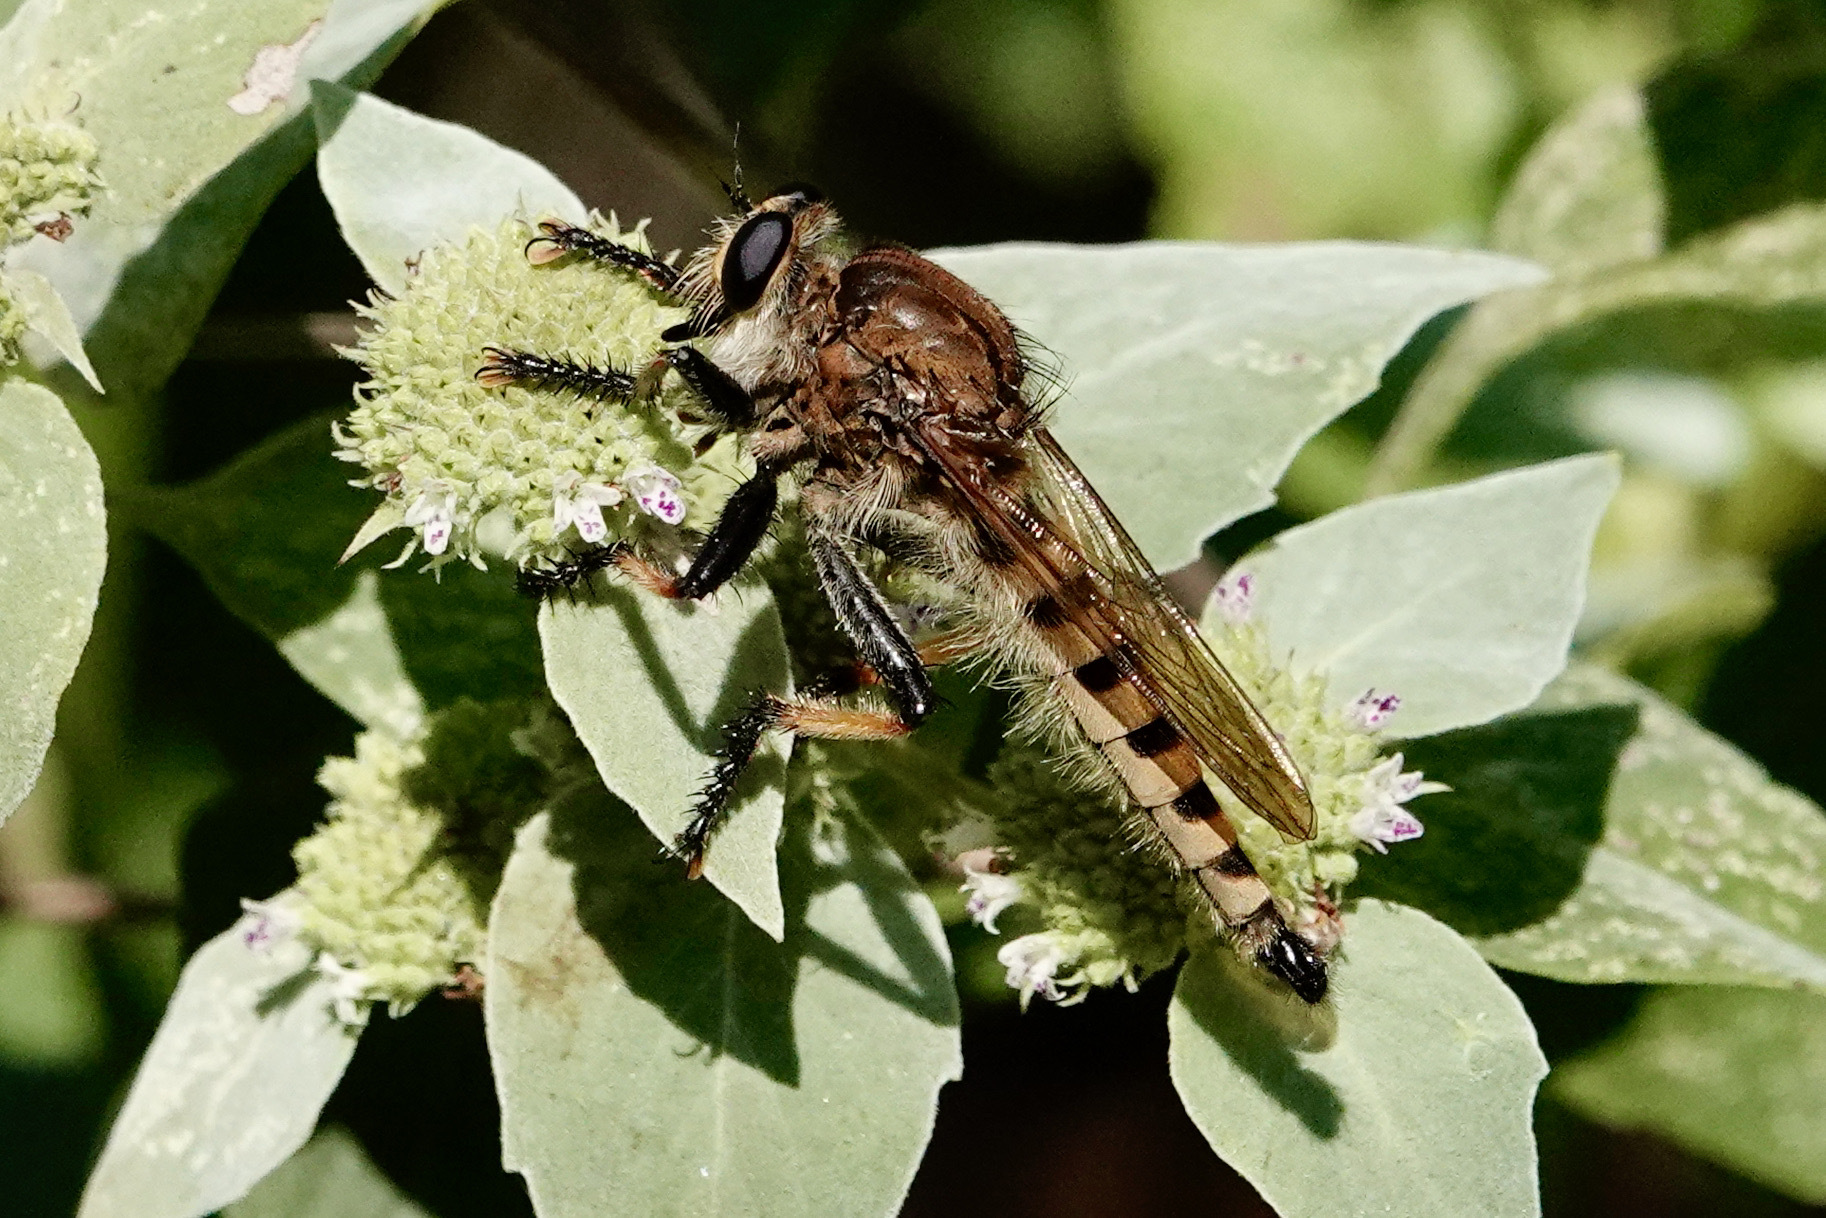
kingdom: Animalia
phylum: Arthropoda
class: Insecta
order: Diptera
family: Asilidae
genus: Promachus
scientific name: Promachus rufipes
